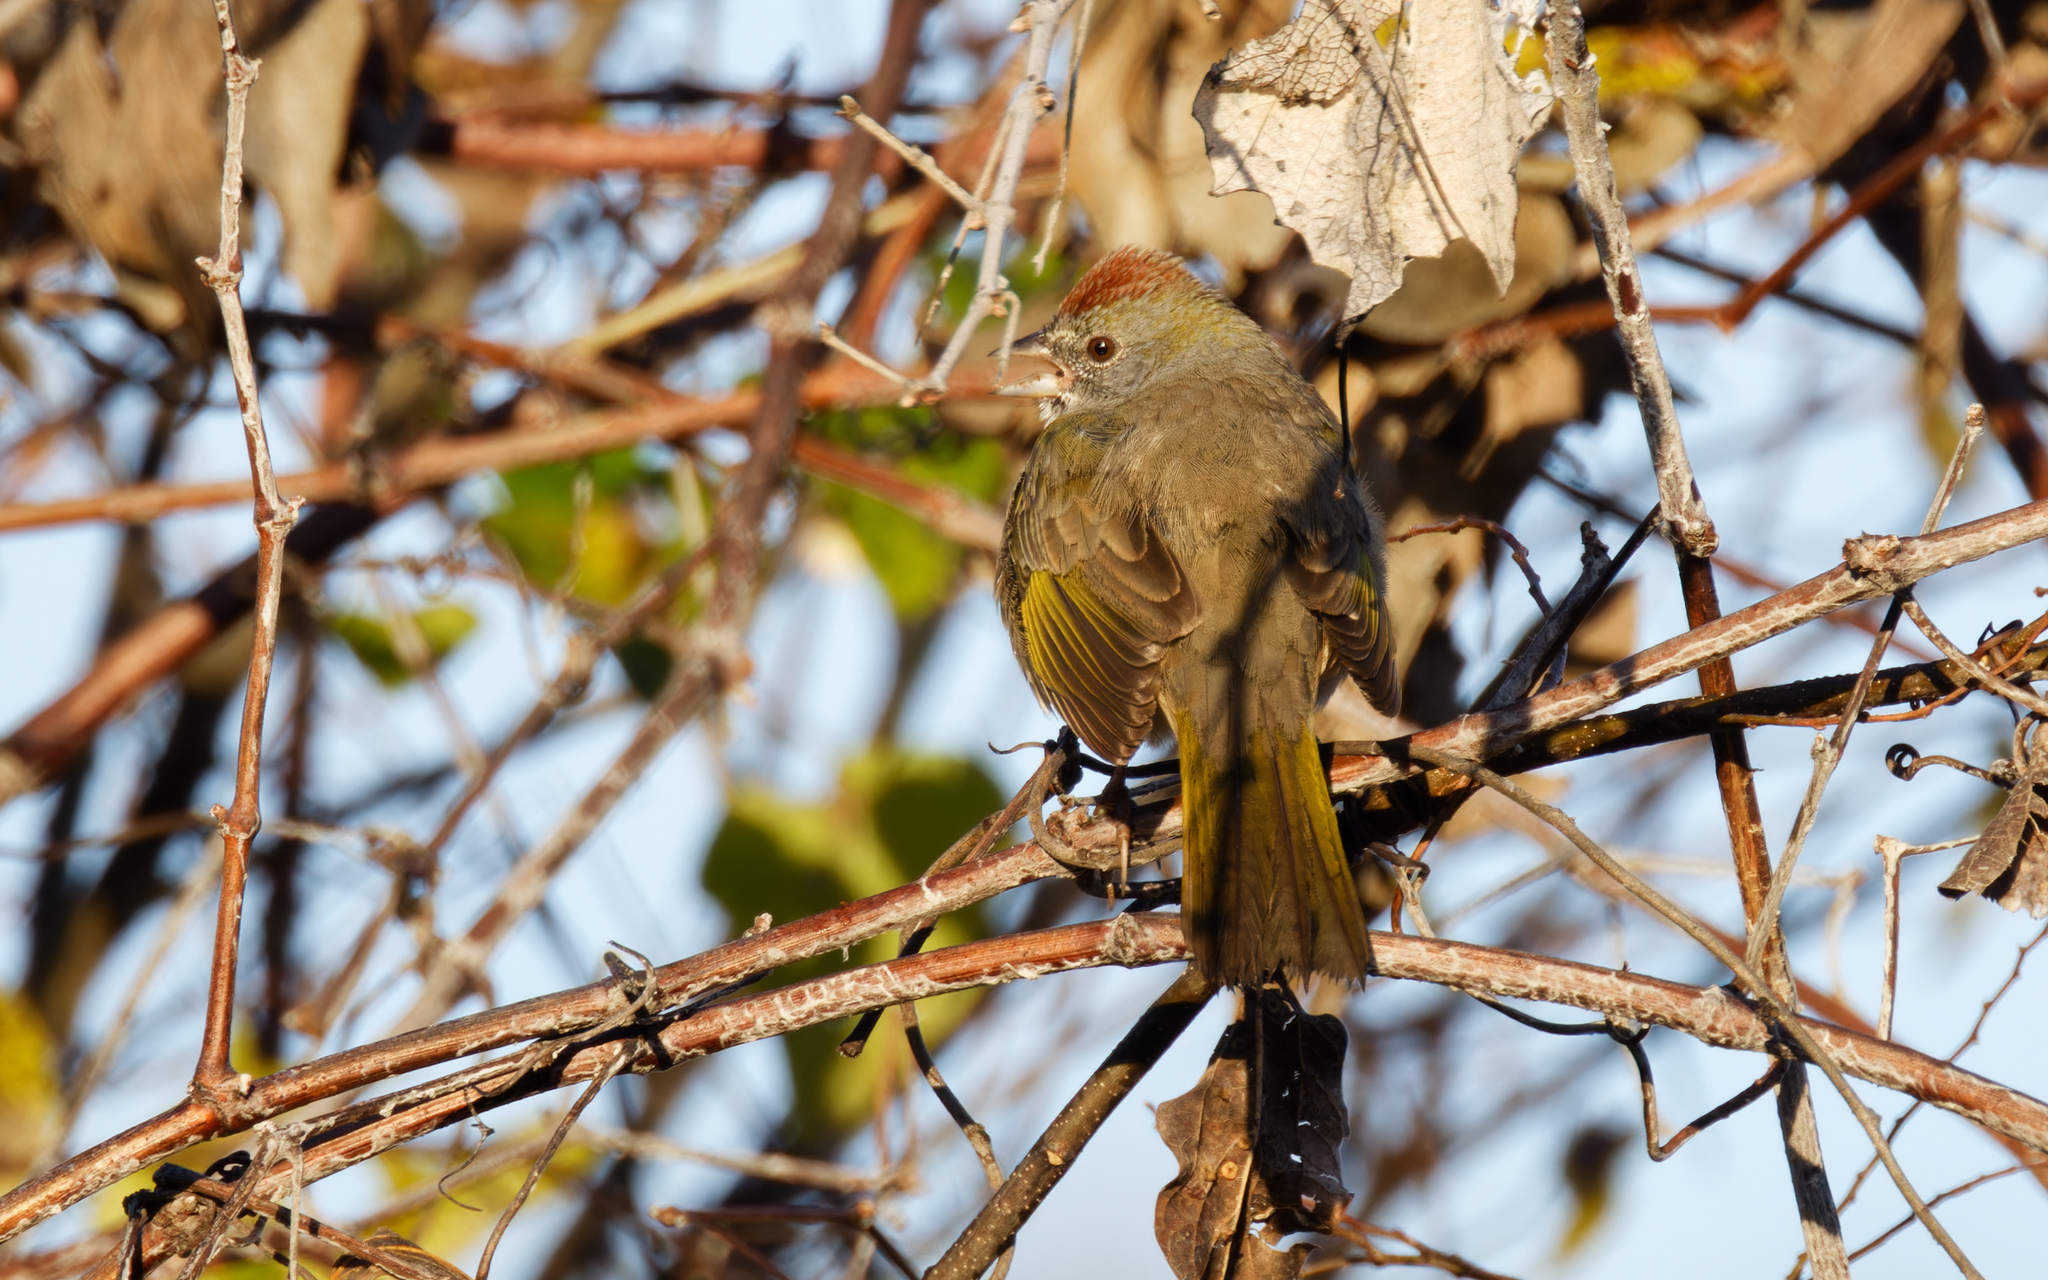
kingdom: Animalia
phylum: Chordata
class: Aves
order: Passeriformes
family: Passerellidae
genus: Pipilo
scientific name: Pipilo chlorurus
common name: Green-tailed towhee
